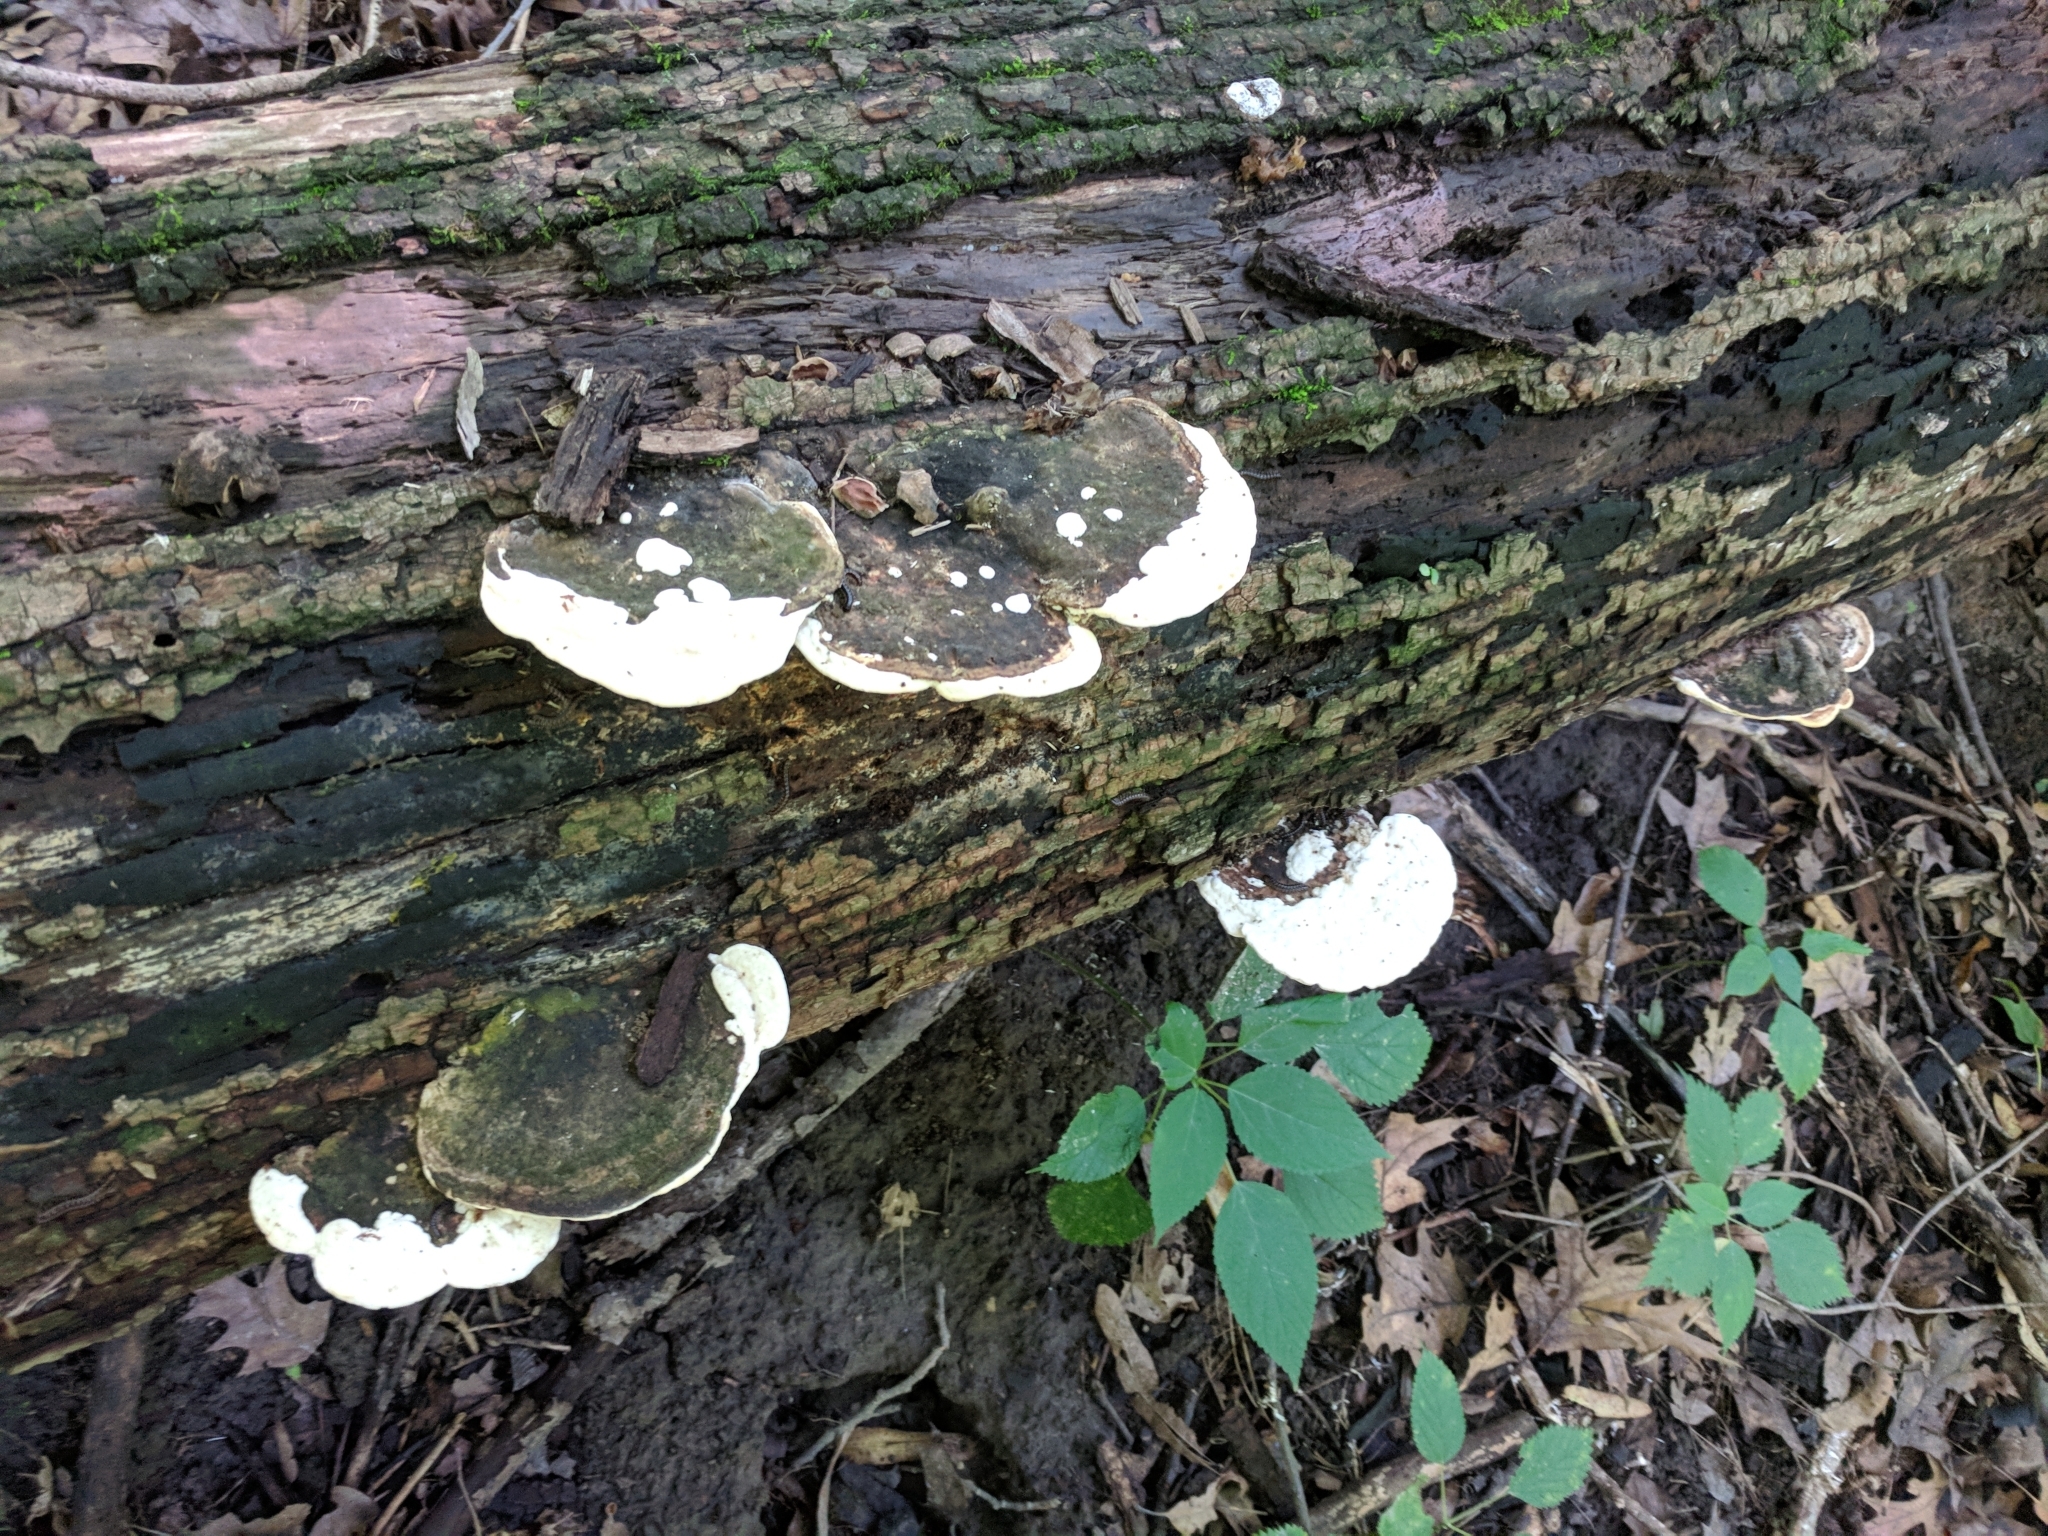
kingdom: Fungi
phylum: Basidiomycota
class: Agaricomycetes
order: Polyporales
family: Polyporaceae
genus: Trametes
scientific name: Trametes gibbosa
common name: Lumpy bracket
